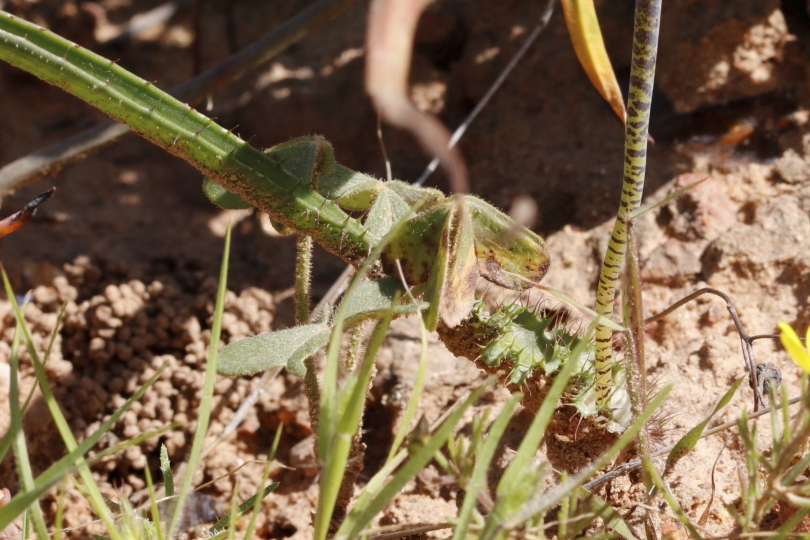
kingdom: Plantae
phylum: Tracheophyta
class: Liliopsida
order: Asparagales
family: Asparagaceae
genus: Lachenalia
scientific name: Lachenalia hirta
